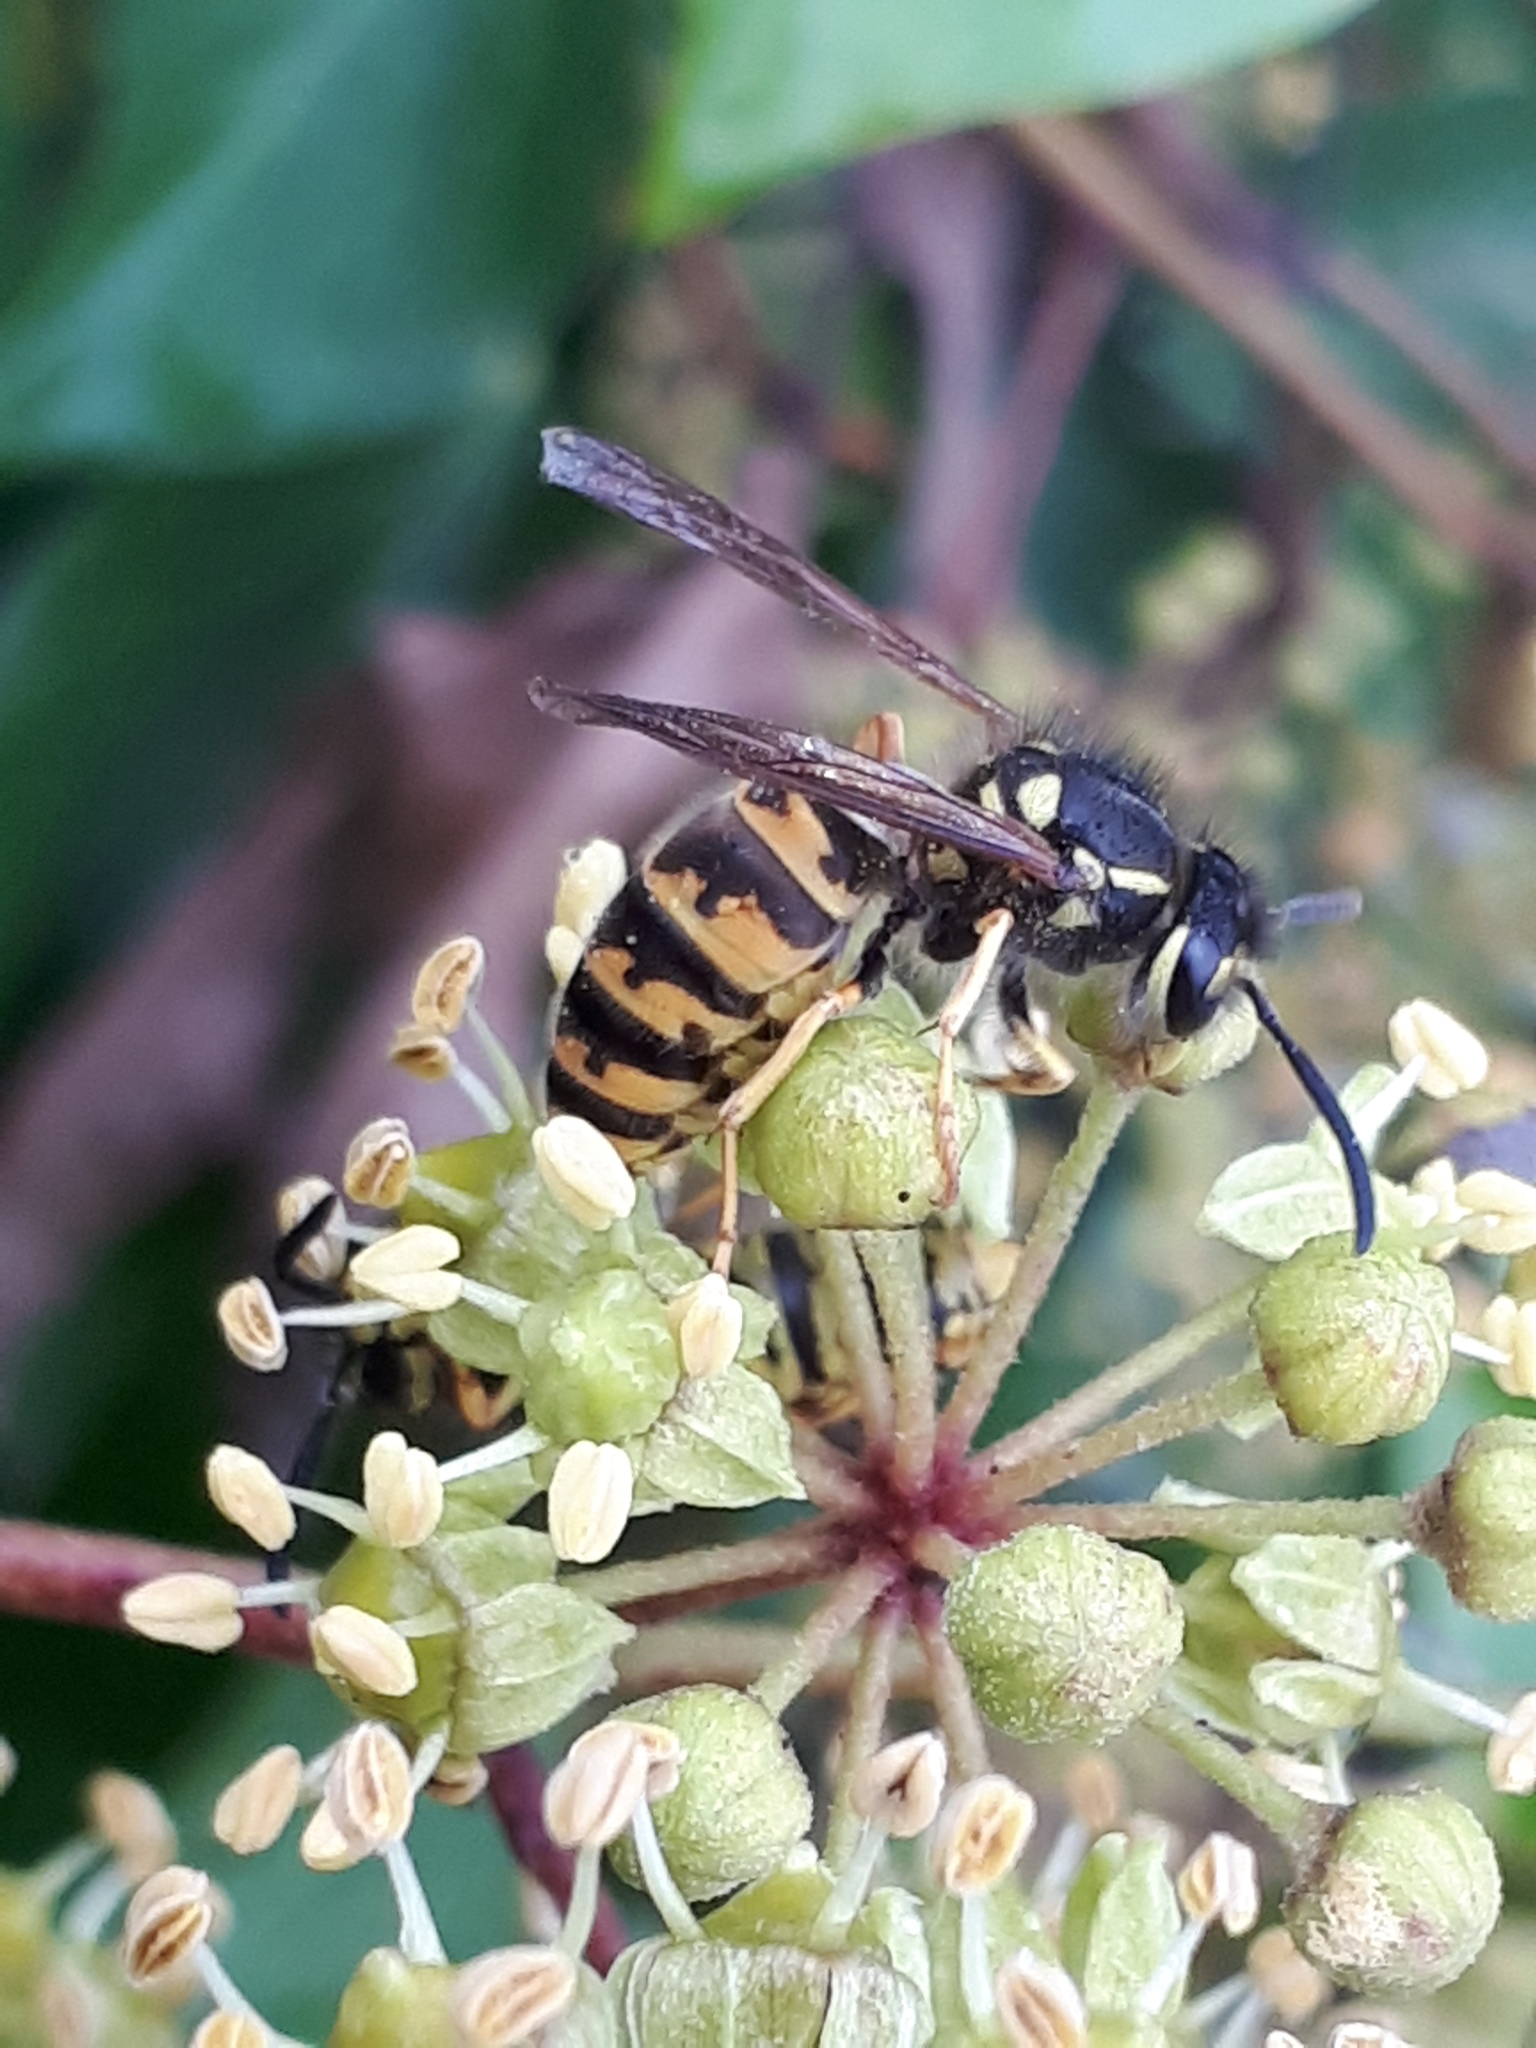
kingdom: Animalia
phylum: Arthropoda
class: Insecta
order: Hymenoptera
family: Vespidae
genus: Vespula
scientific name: Vespula germanica
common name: German wasp
